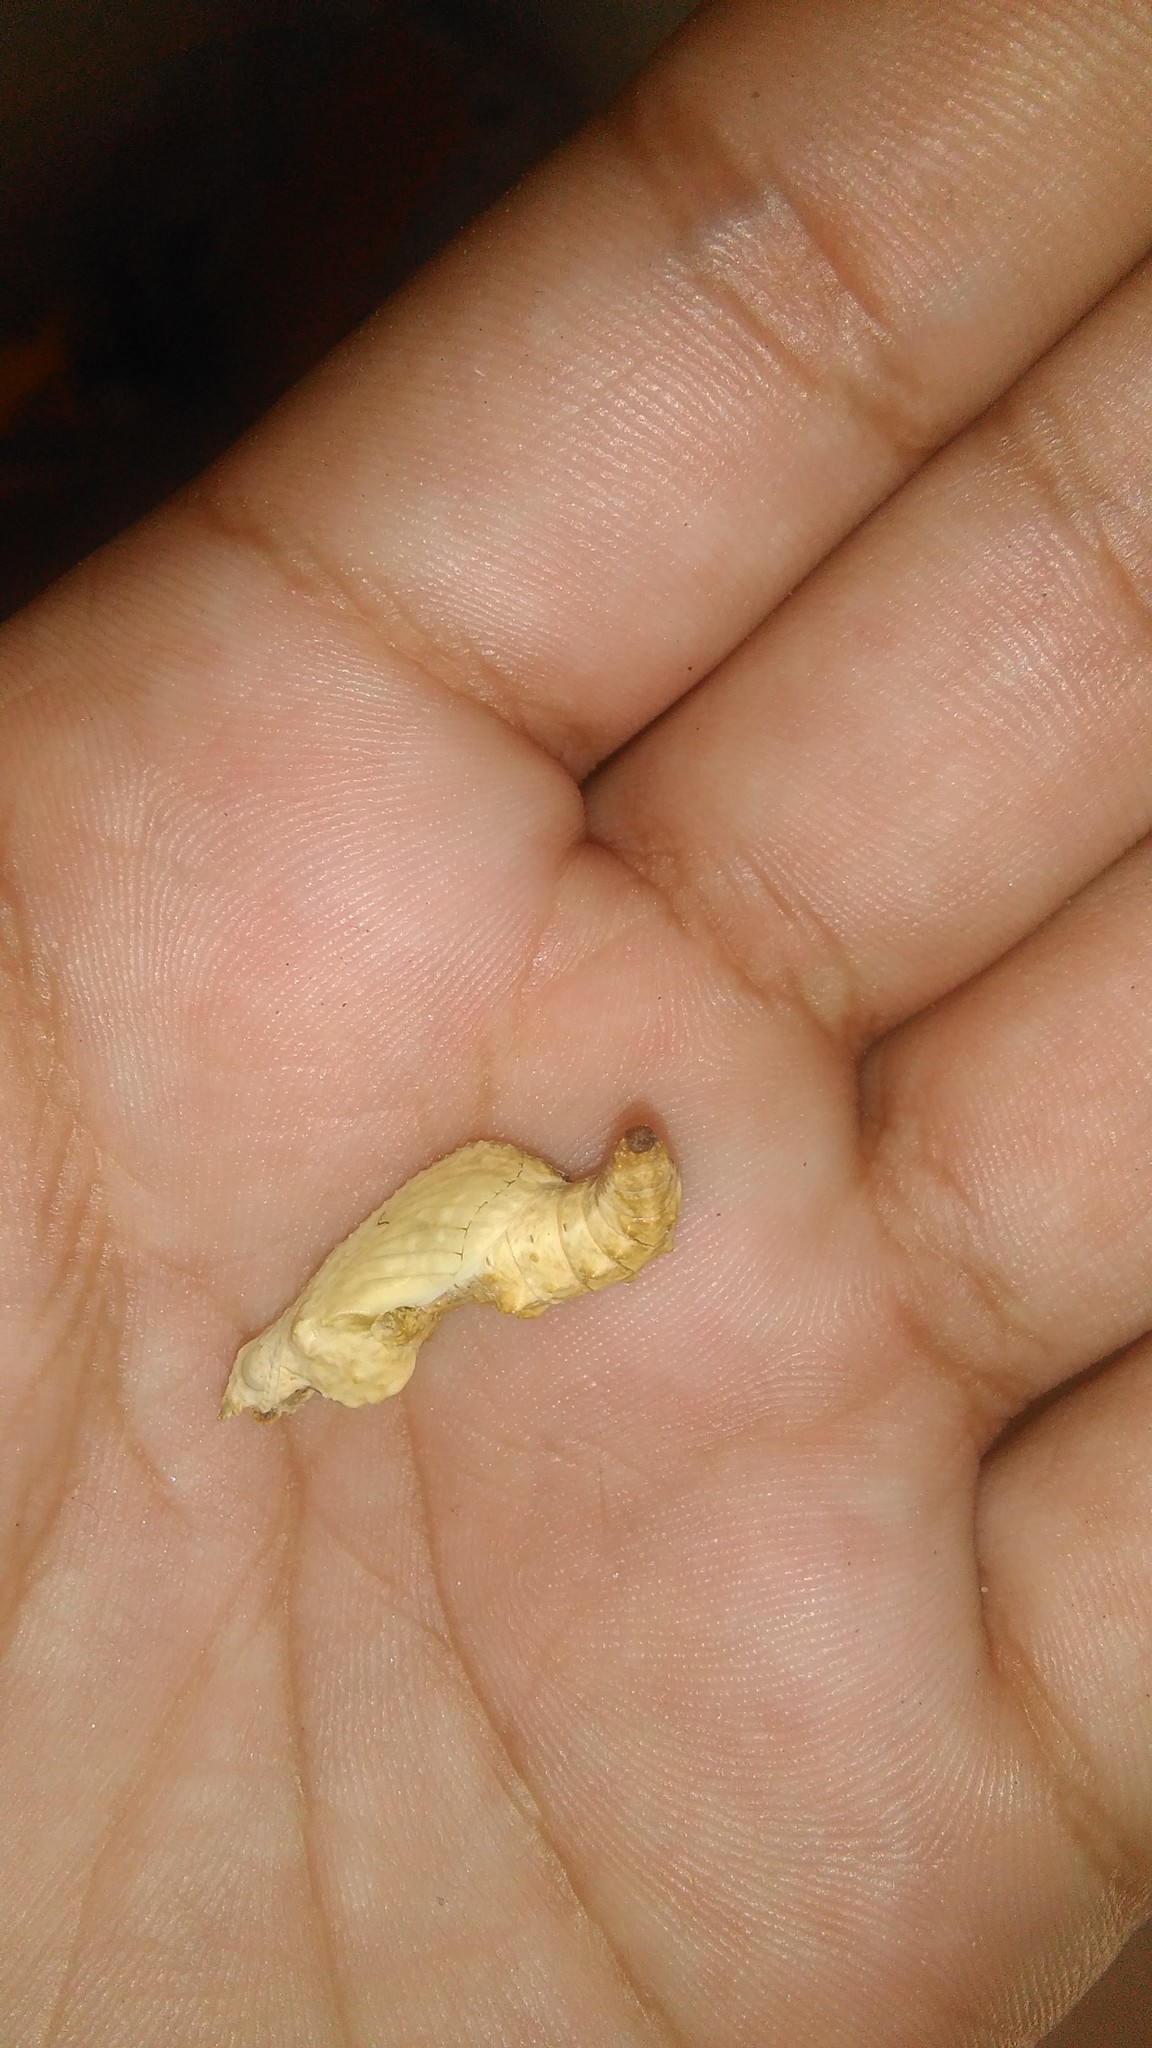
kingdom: Animalia
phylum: Arthropoda
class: Insecta
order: Lepidoptera
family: Nymphalidae
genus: Dione
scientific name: Dione vanillae
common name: Gulf fritillary
